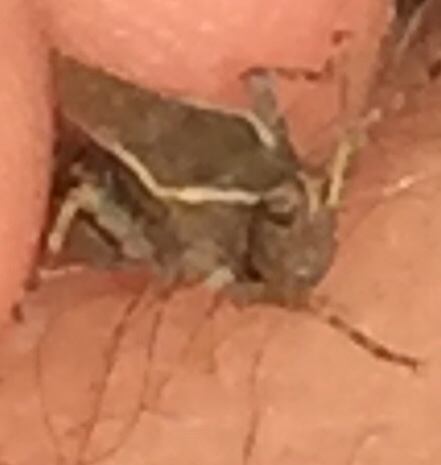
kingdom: Animalia
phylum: Arthropoda
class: Insecta
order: Orthoptera
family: Tetrigidae
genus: Tetrix
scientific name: Tetrix subulata
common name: Slender ground-hopper
